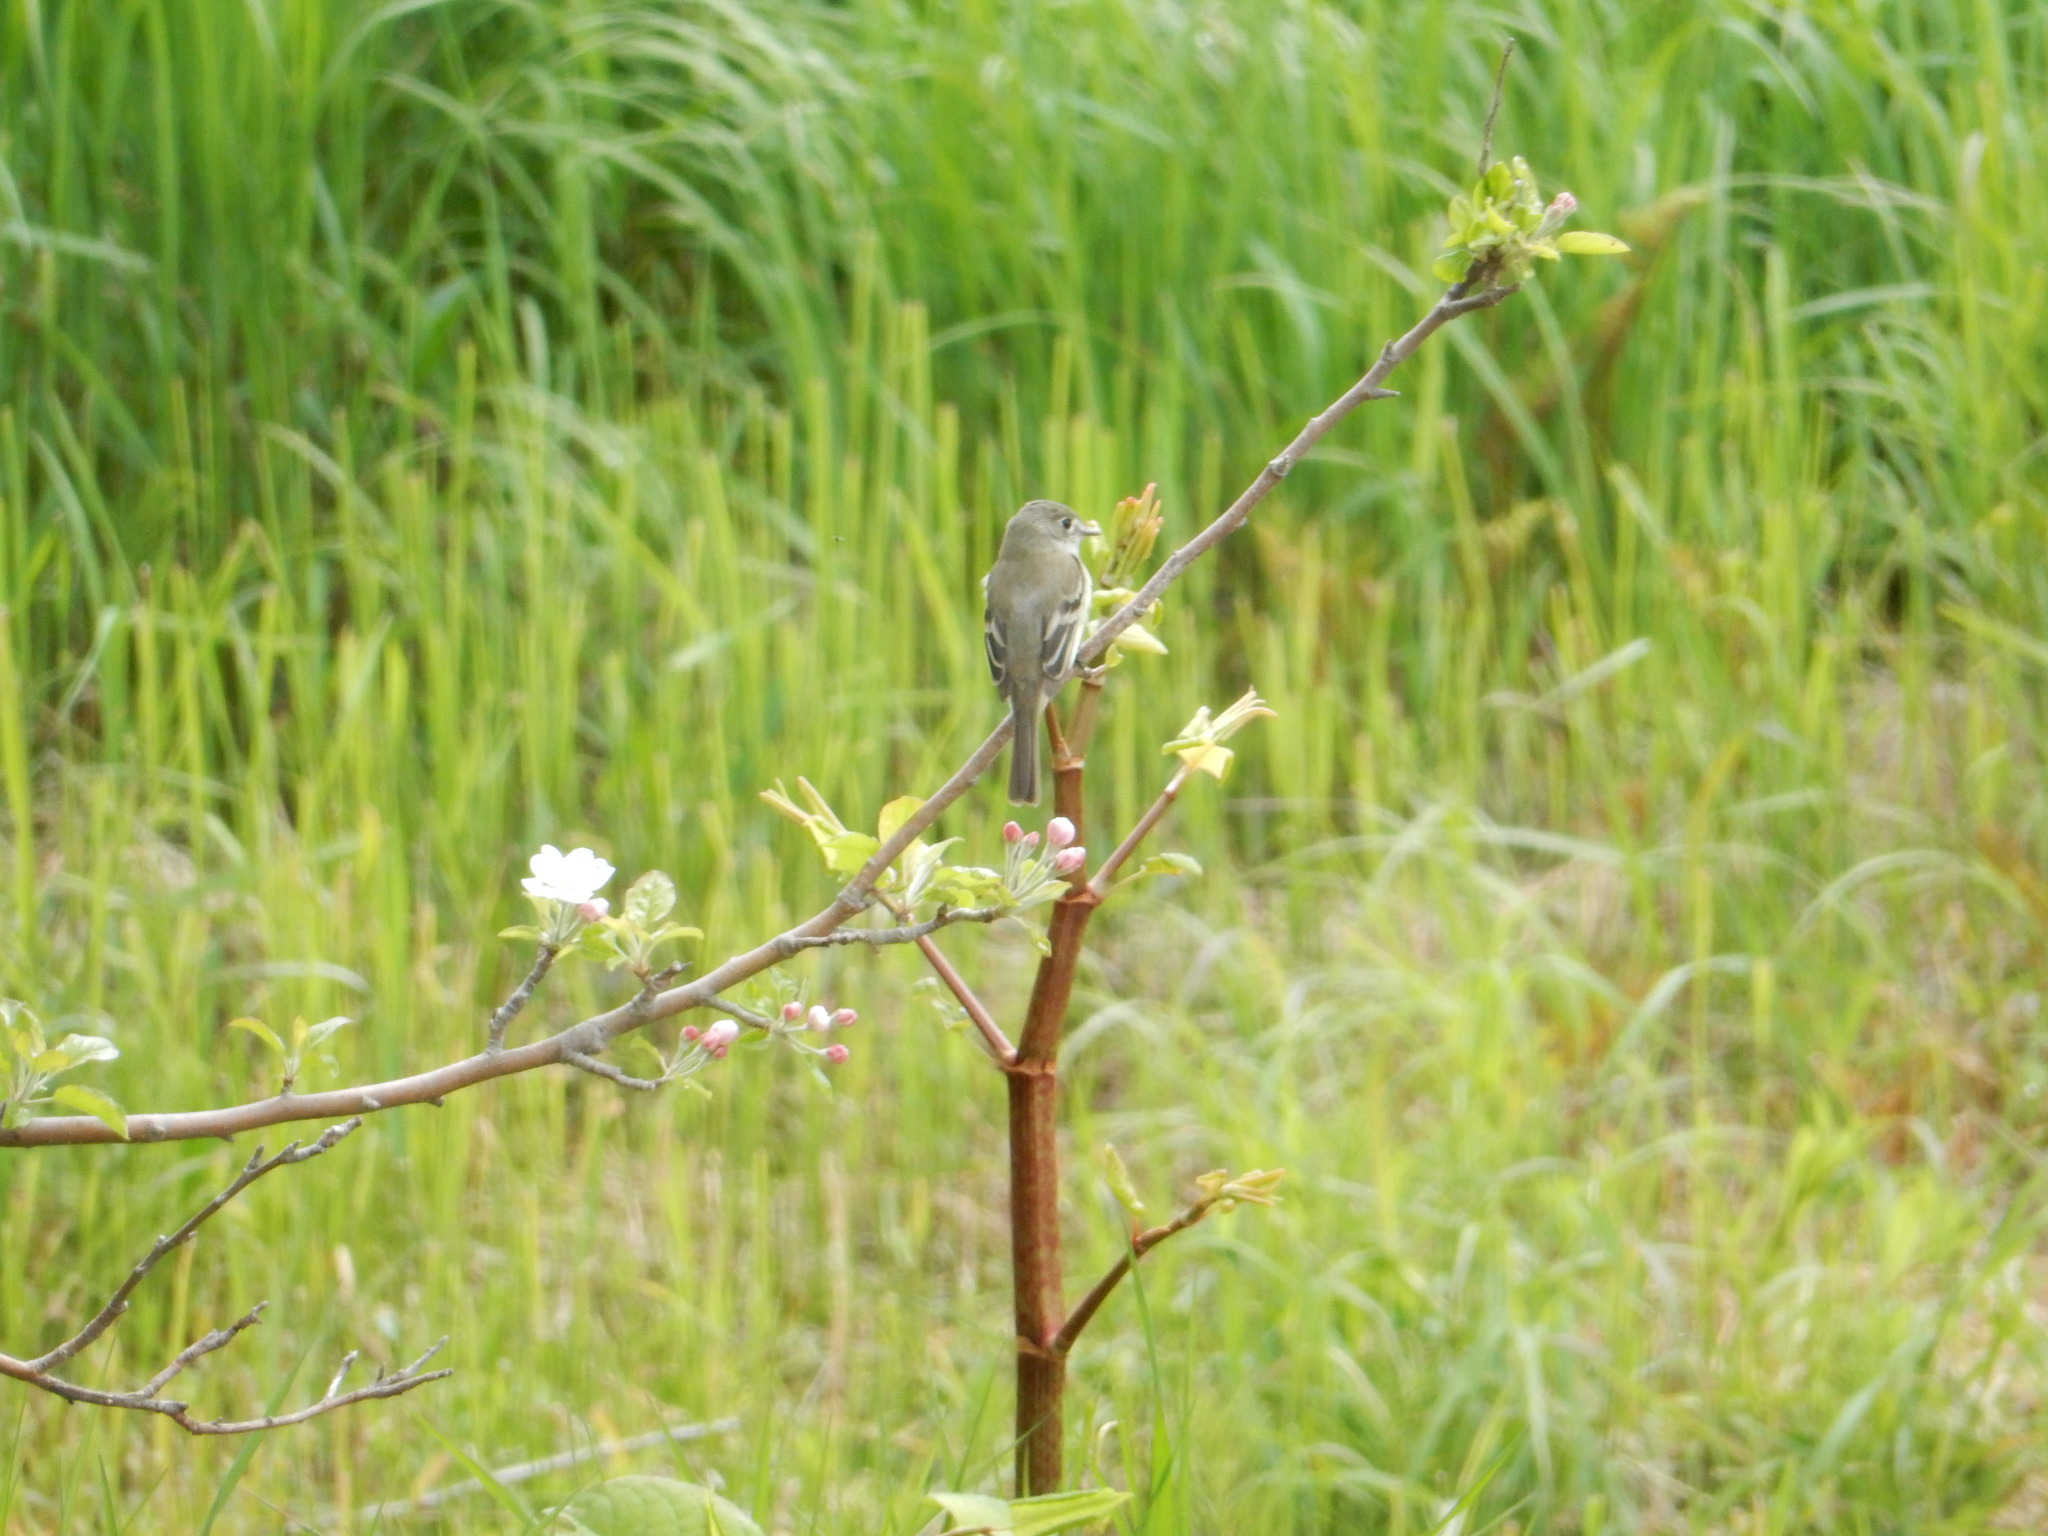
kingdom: Animalia
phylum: Chordata
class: Aves
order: Passeriformes
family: Tyrannidae
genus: Empidonax
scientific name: Empidonax minimus
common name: Least flycatcher
